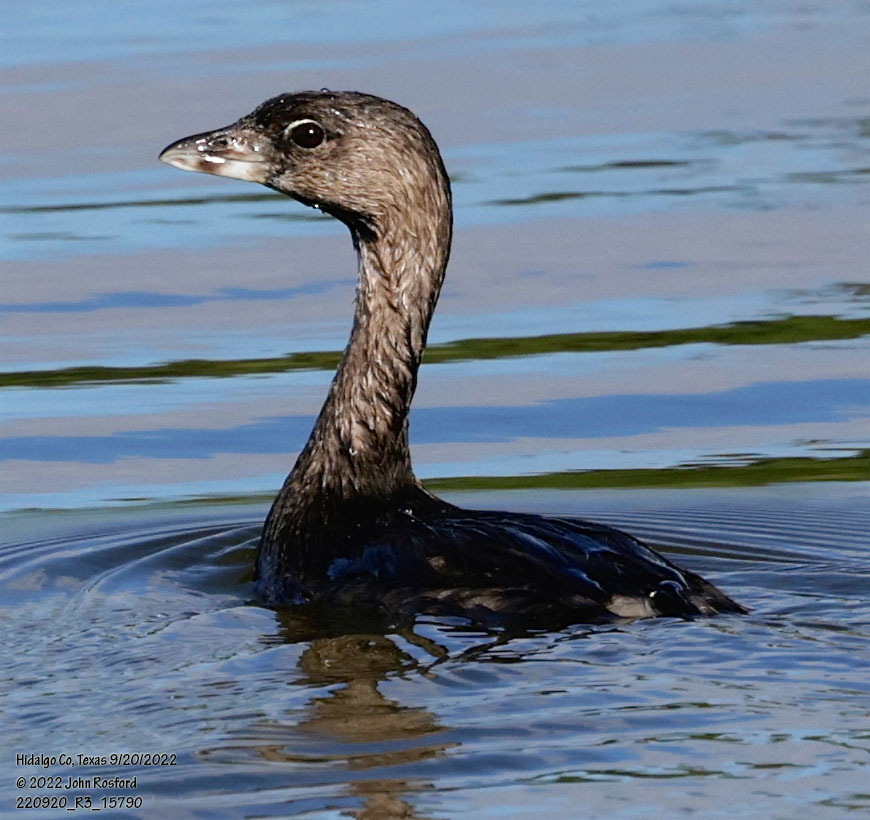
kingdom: Animalia
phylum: Chordata
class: Aves
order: Podicipediformes
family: Podicipedidae
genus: Podilymbus
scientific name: Podilymbus podiceps
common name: Pied-billed grebe
